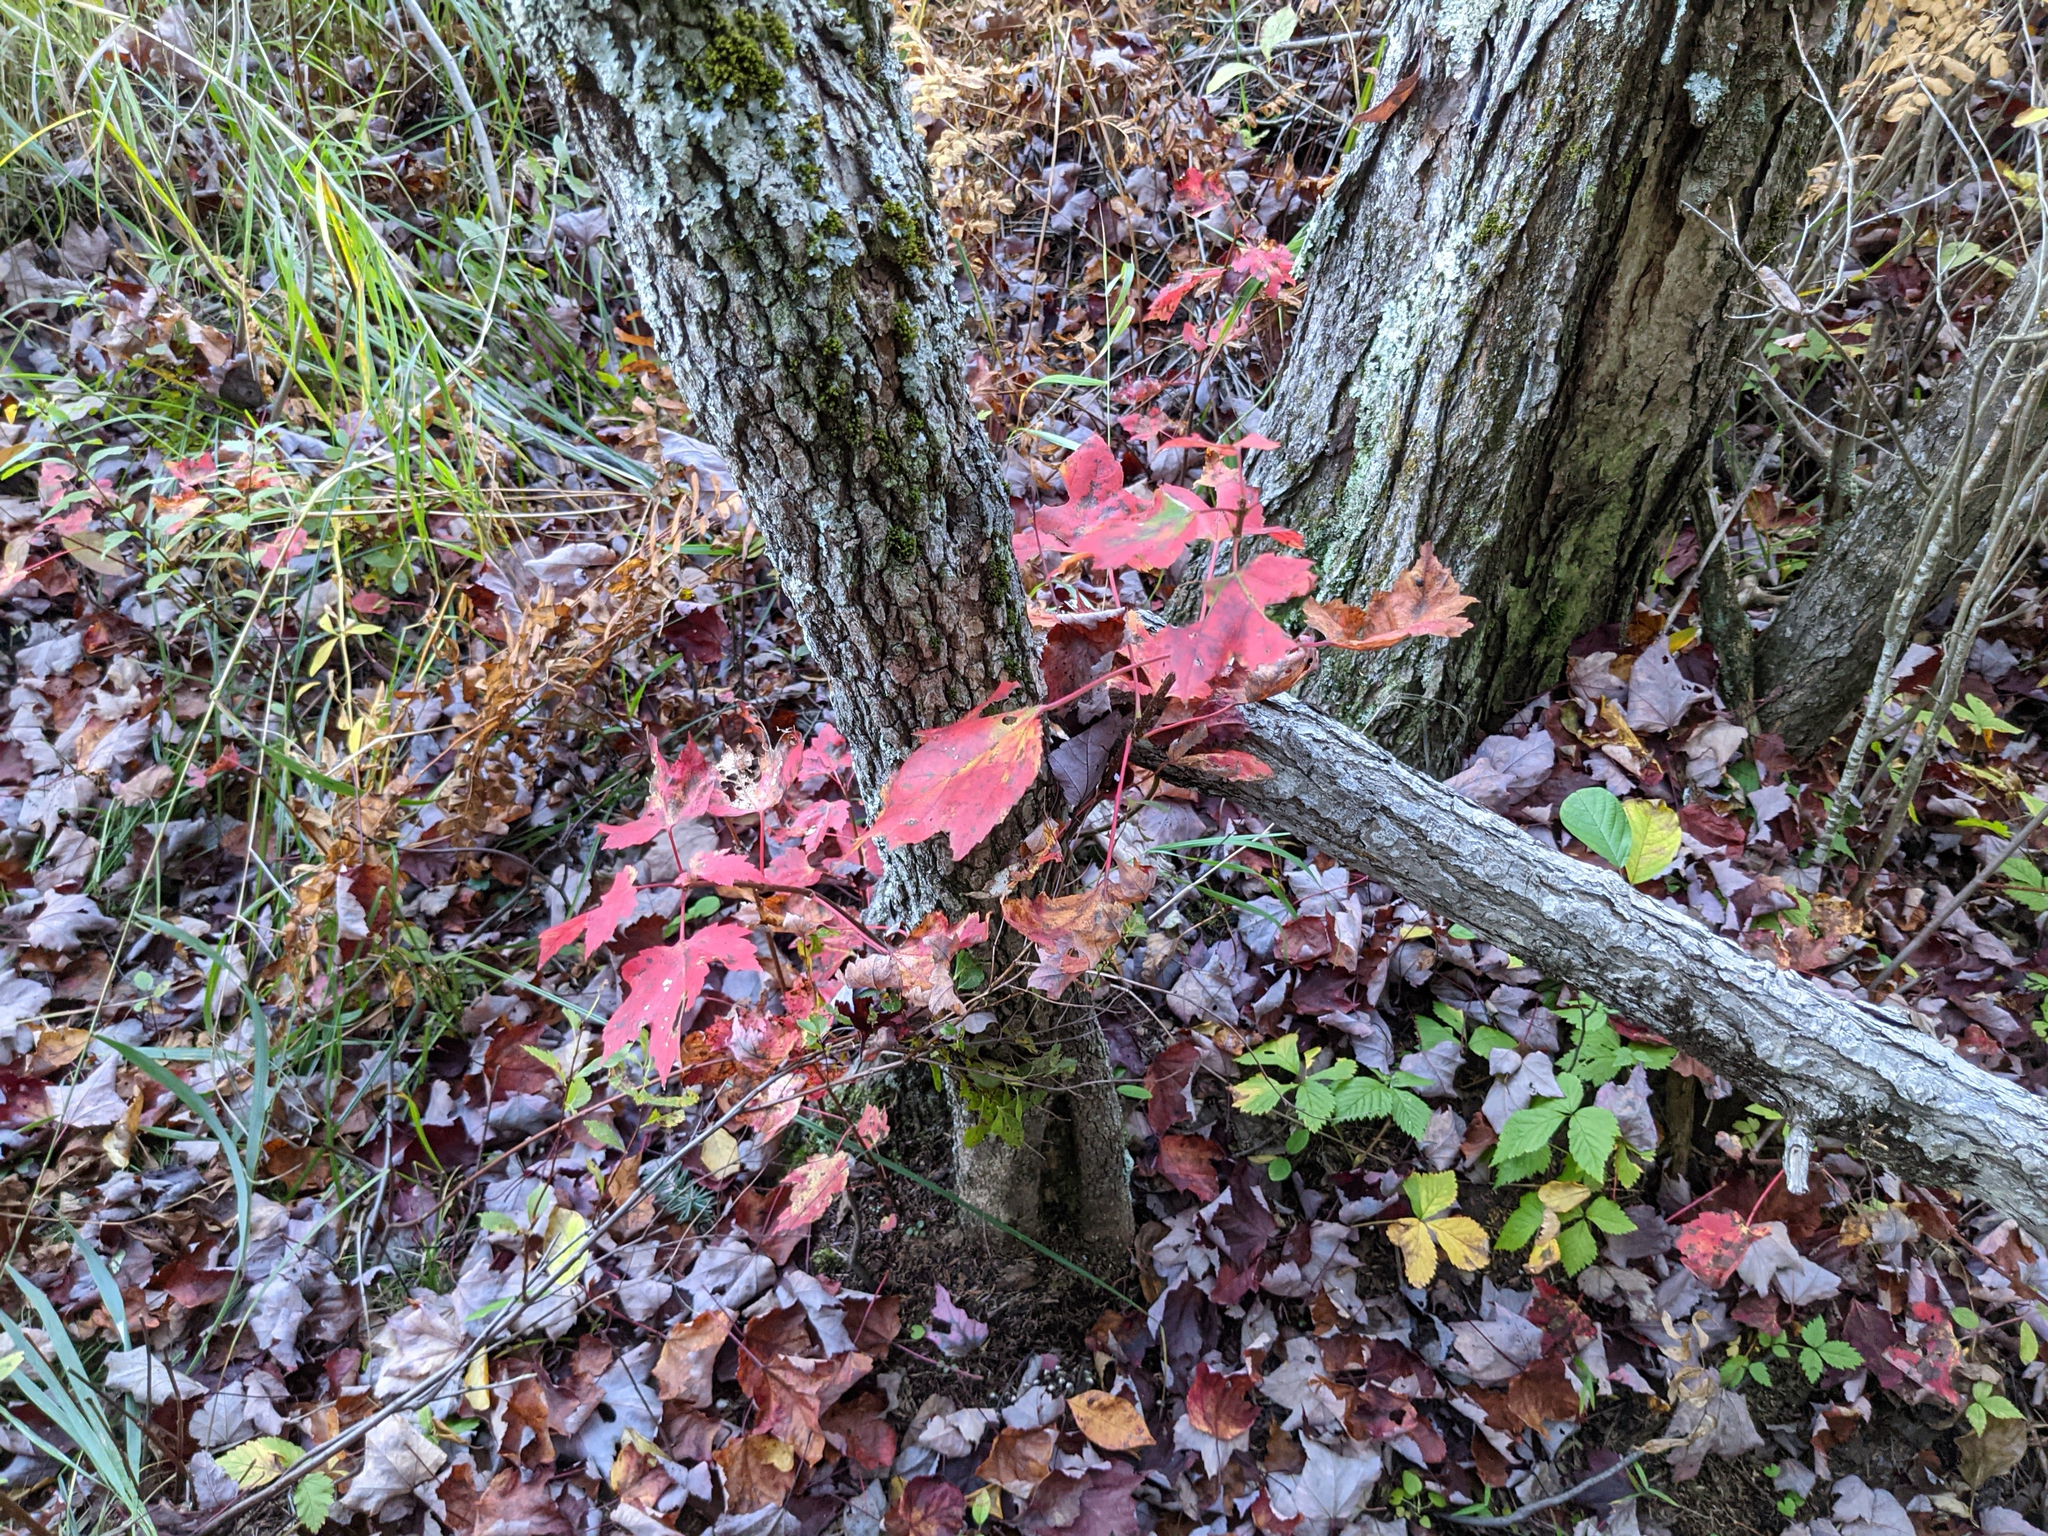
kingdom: Plantae
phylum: Tracheophyta
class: Magnoliopsida
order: Sapindales
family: Sapindaceae
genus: Acer
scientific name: Acer rubrum
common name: Red maple
